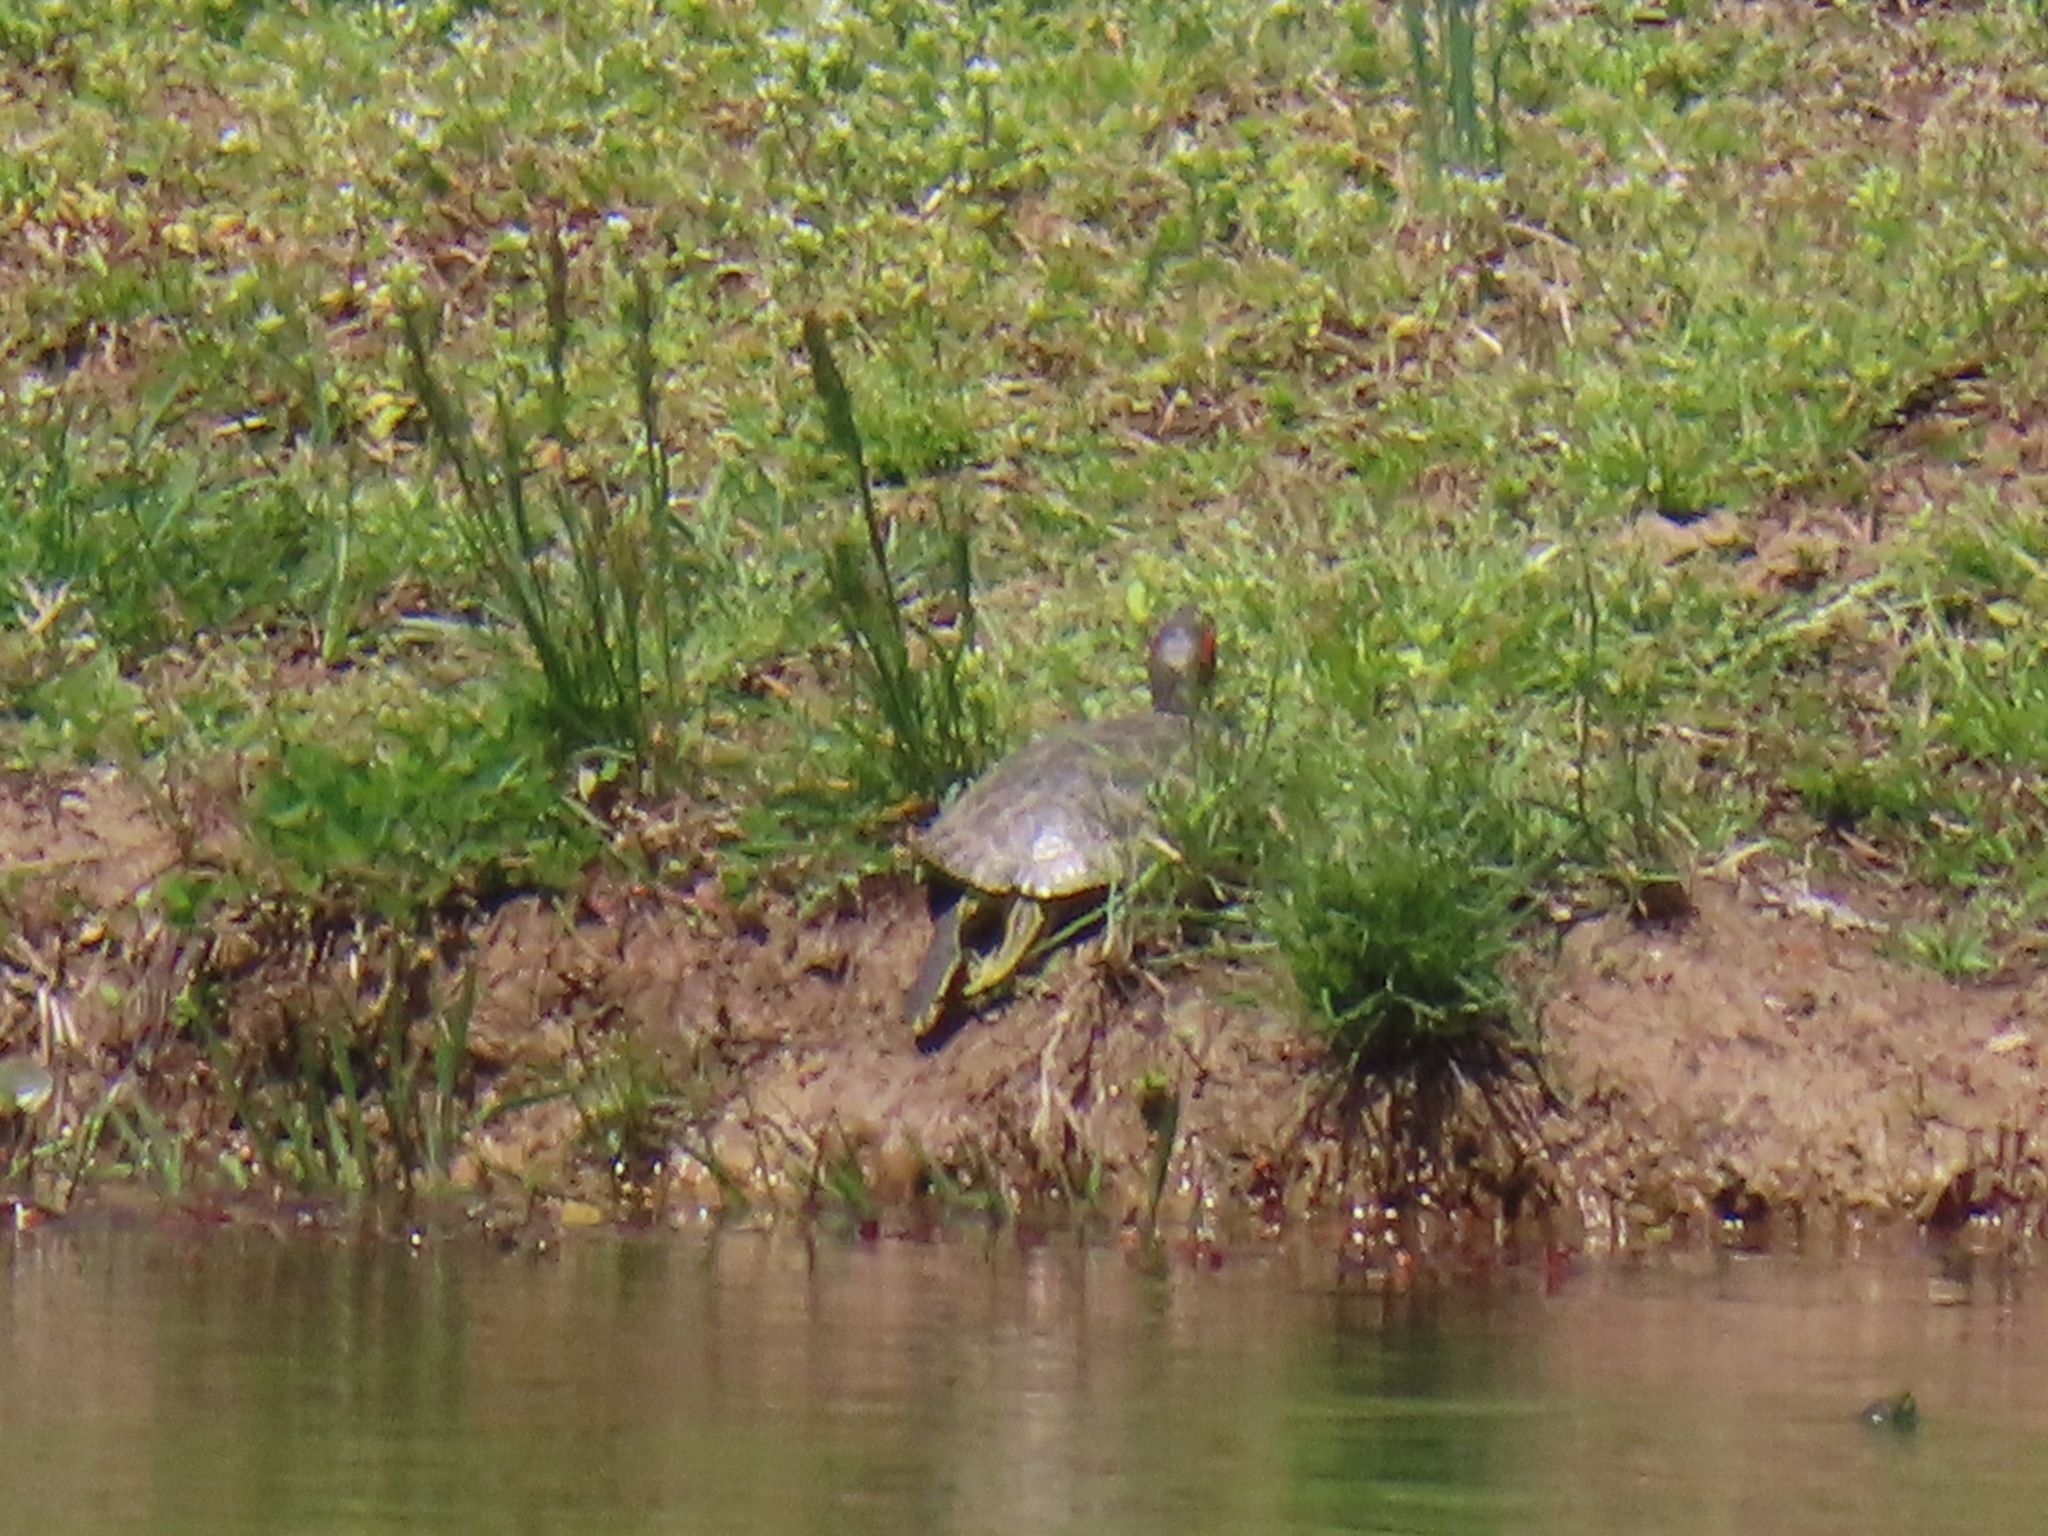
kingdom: Animalia
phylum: Chordata
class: Testudines
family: Emydidae
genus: Trachemys
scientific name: Trachemys scripta
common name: Slider
